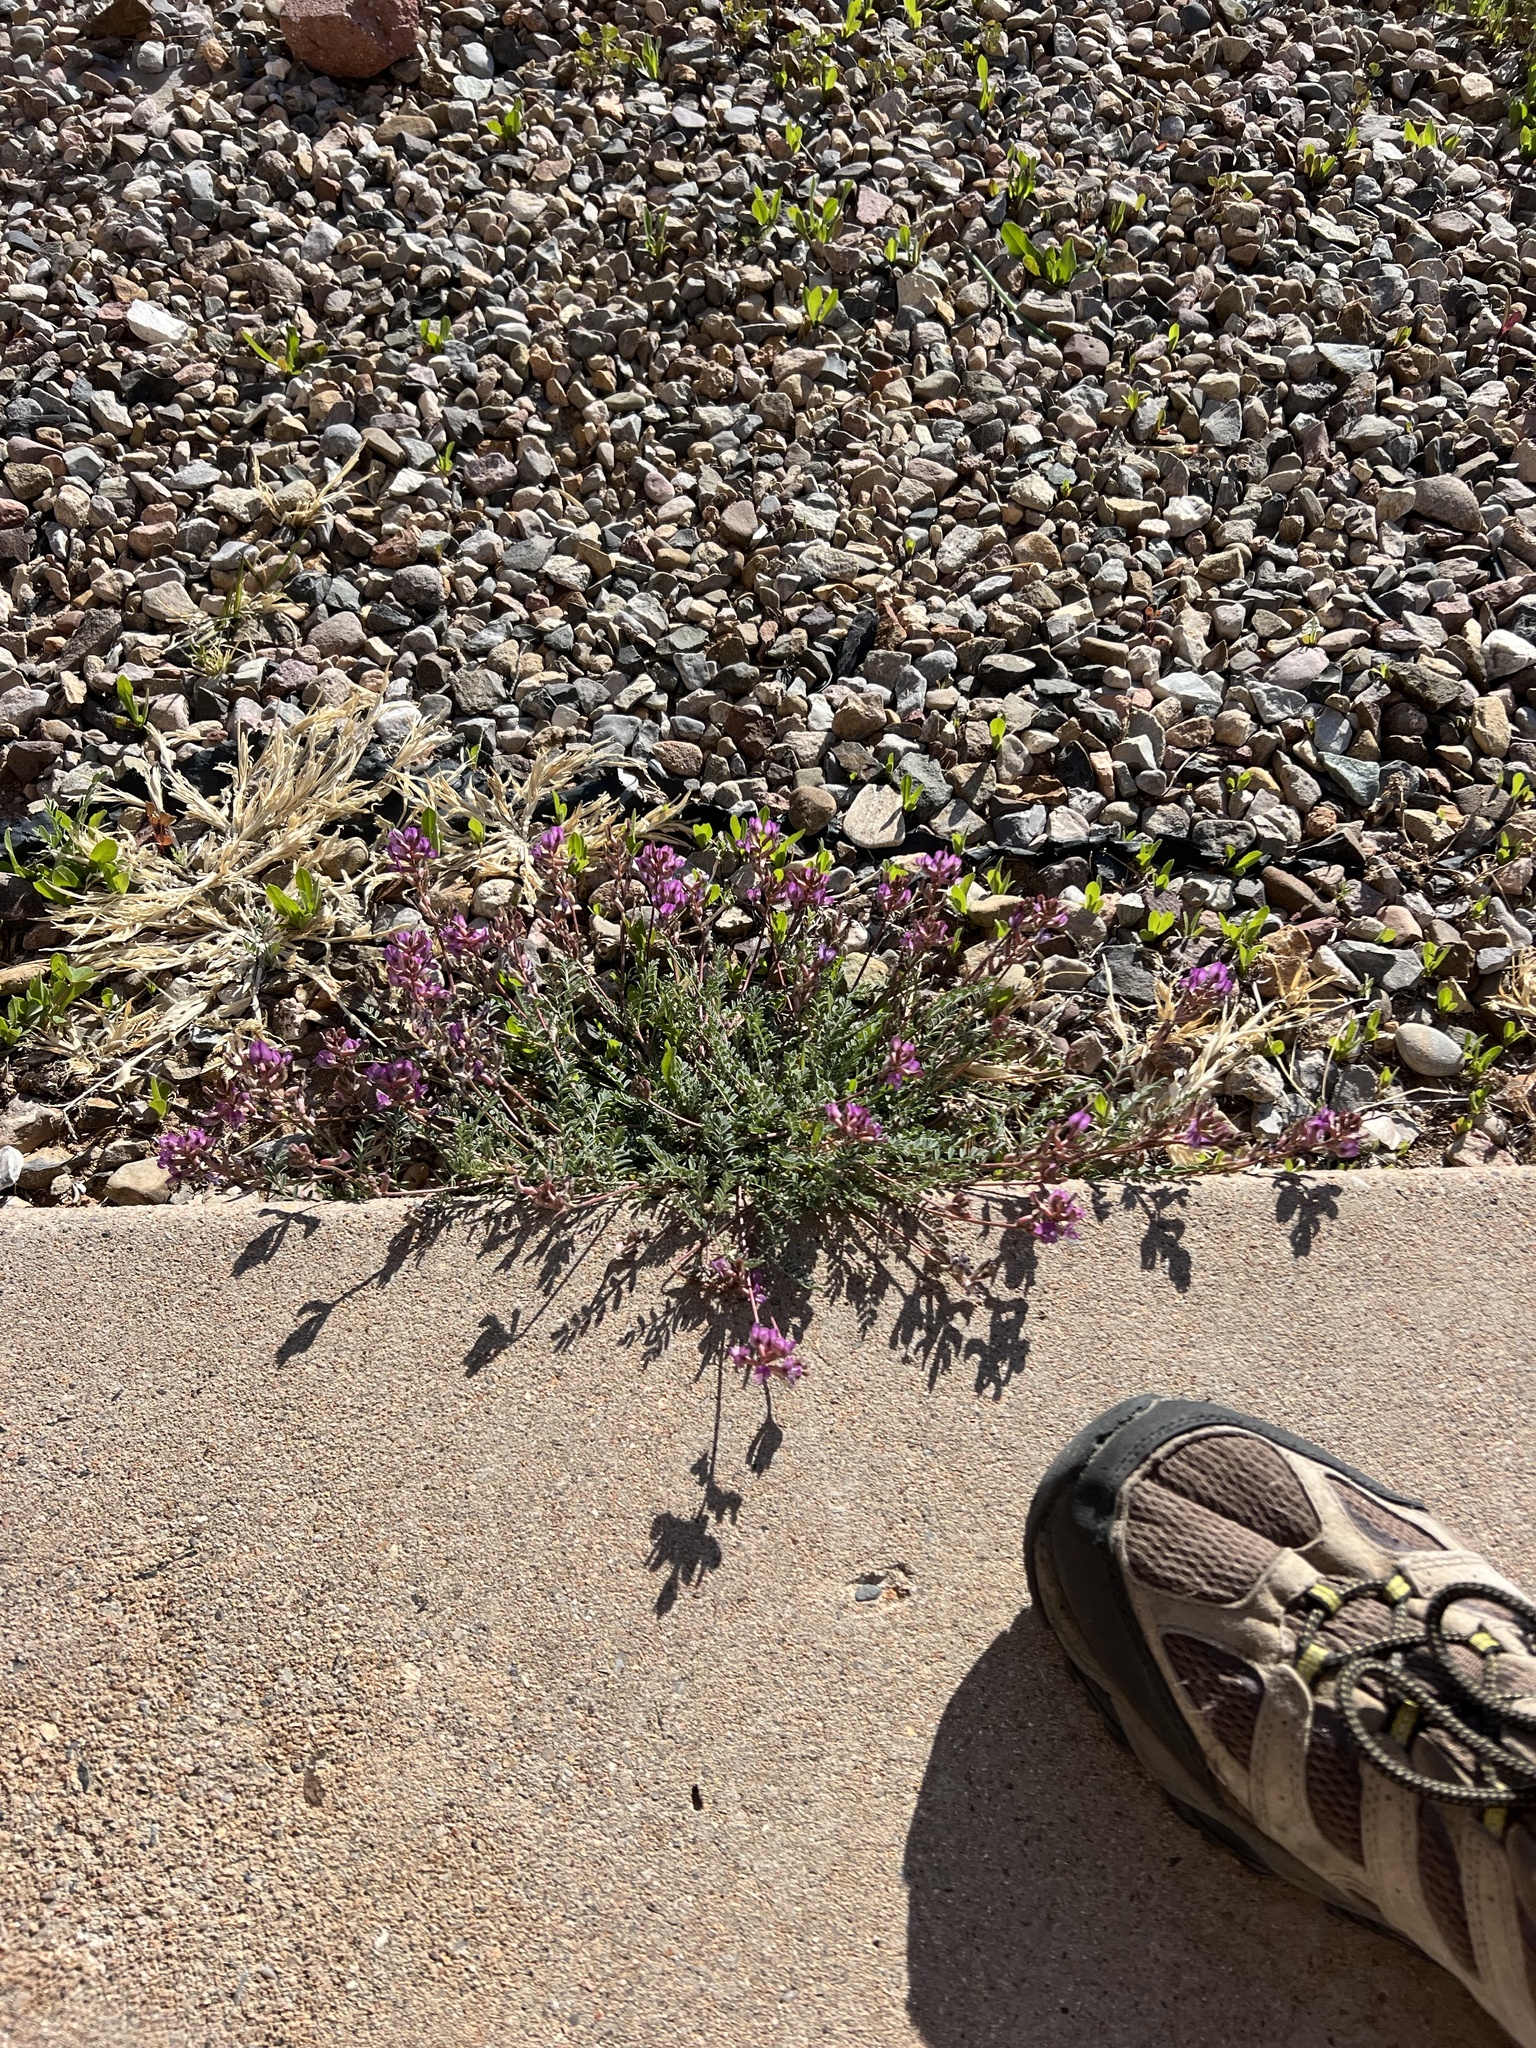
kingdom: Plantae
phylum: Tracheophyta
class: Magnoliopsida
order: Fabales
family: Fabaceae
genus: Astragalus
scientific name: Astragalus nothoxys
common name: Beaked milk-vetch
